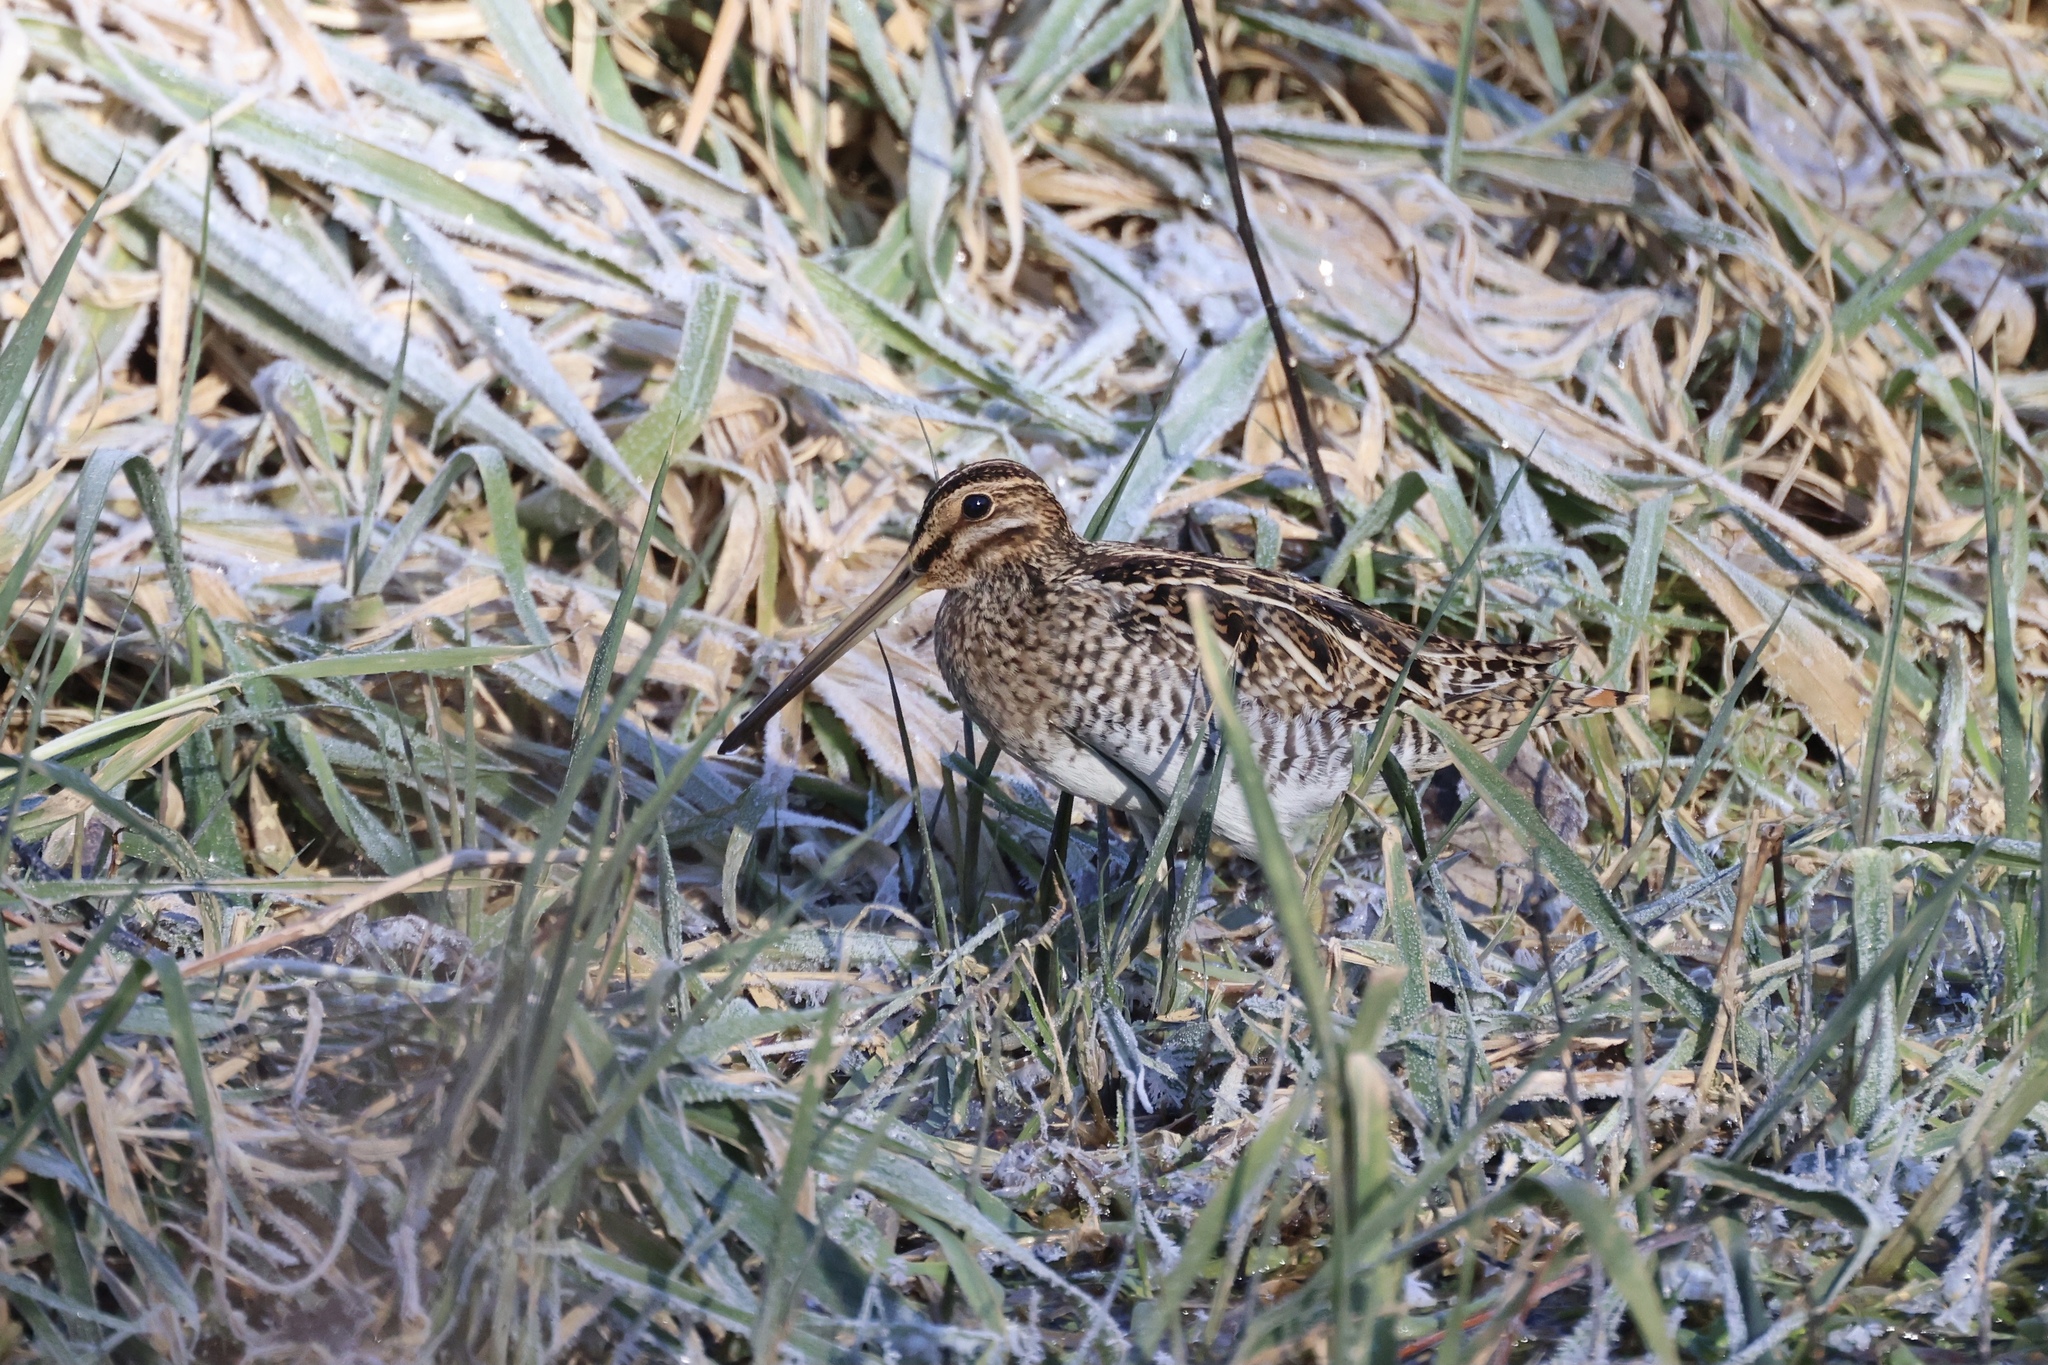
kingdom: Animalia
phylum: Chordata
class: Aves
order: Charadriiformes
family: Scolopacidae
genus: Gallinago
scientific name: Gallinago delicata
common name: Wilson's snipe
